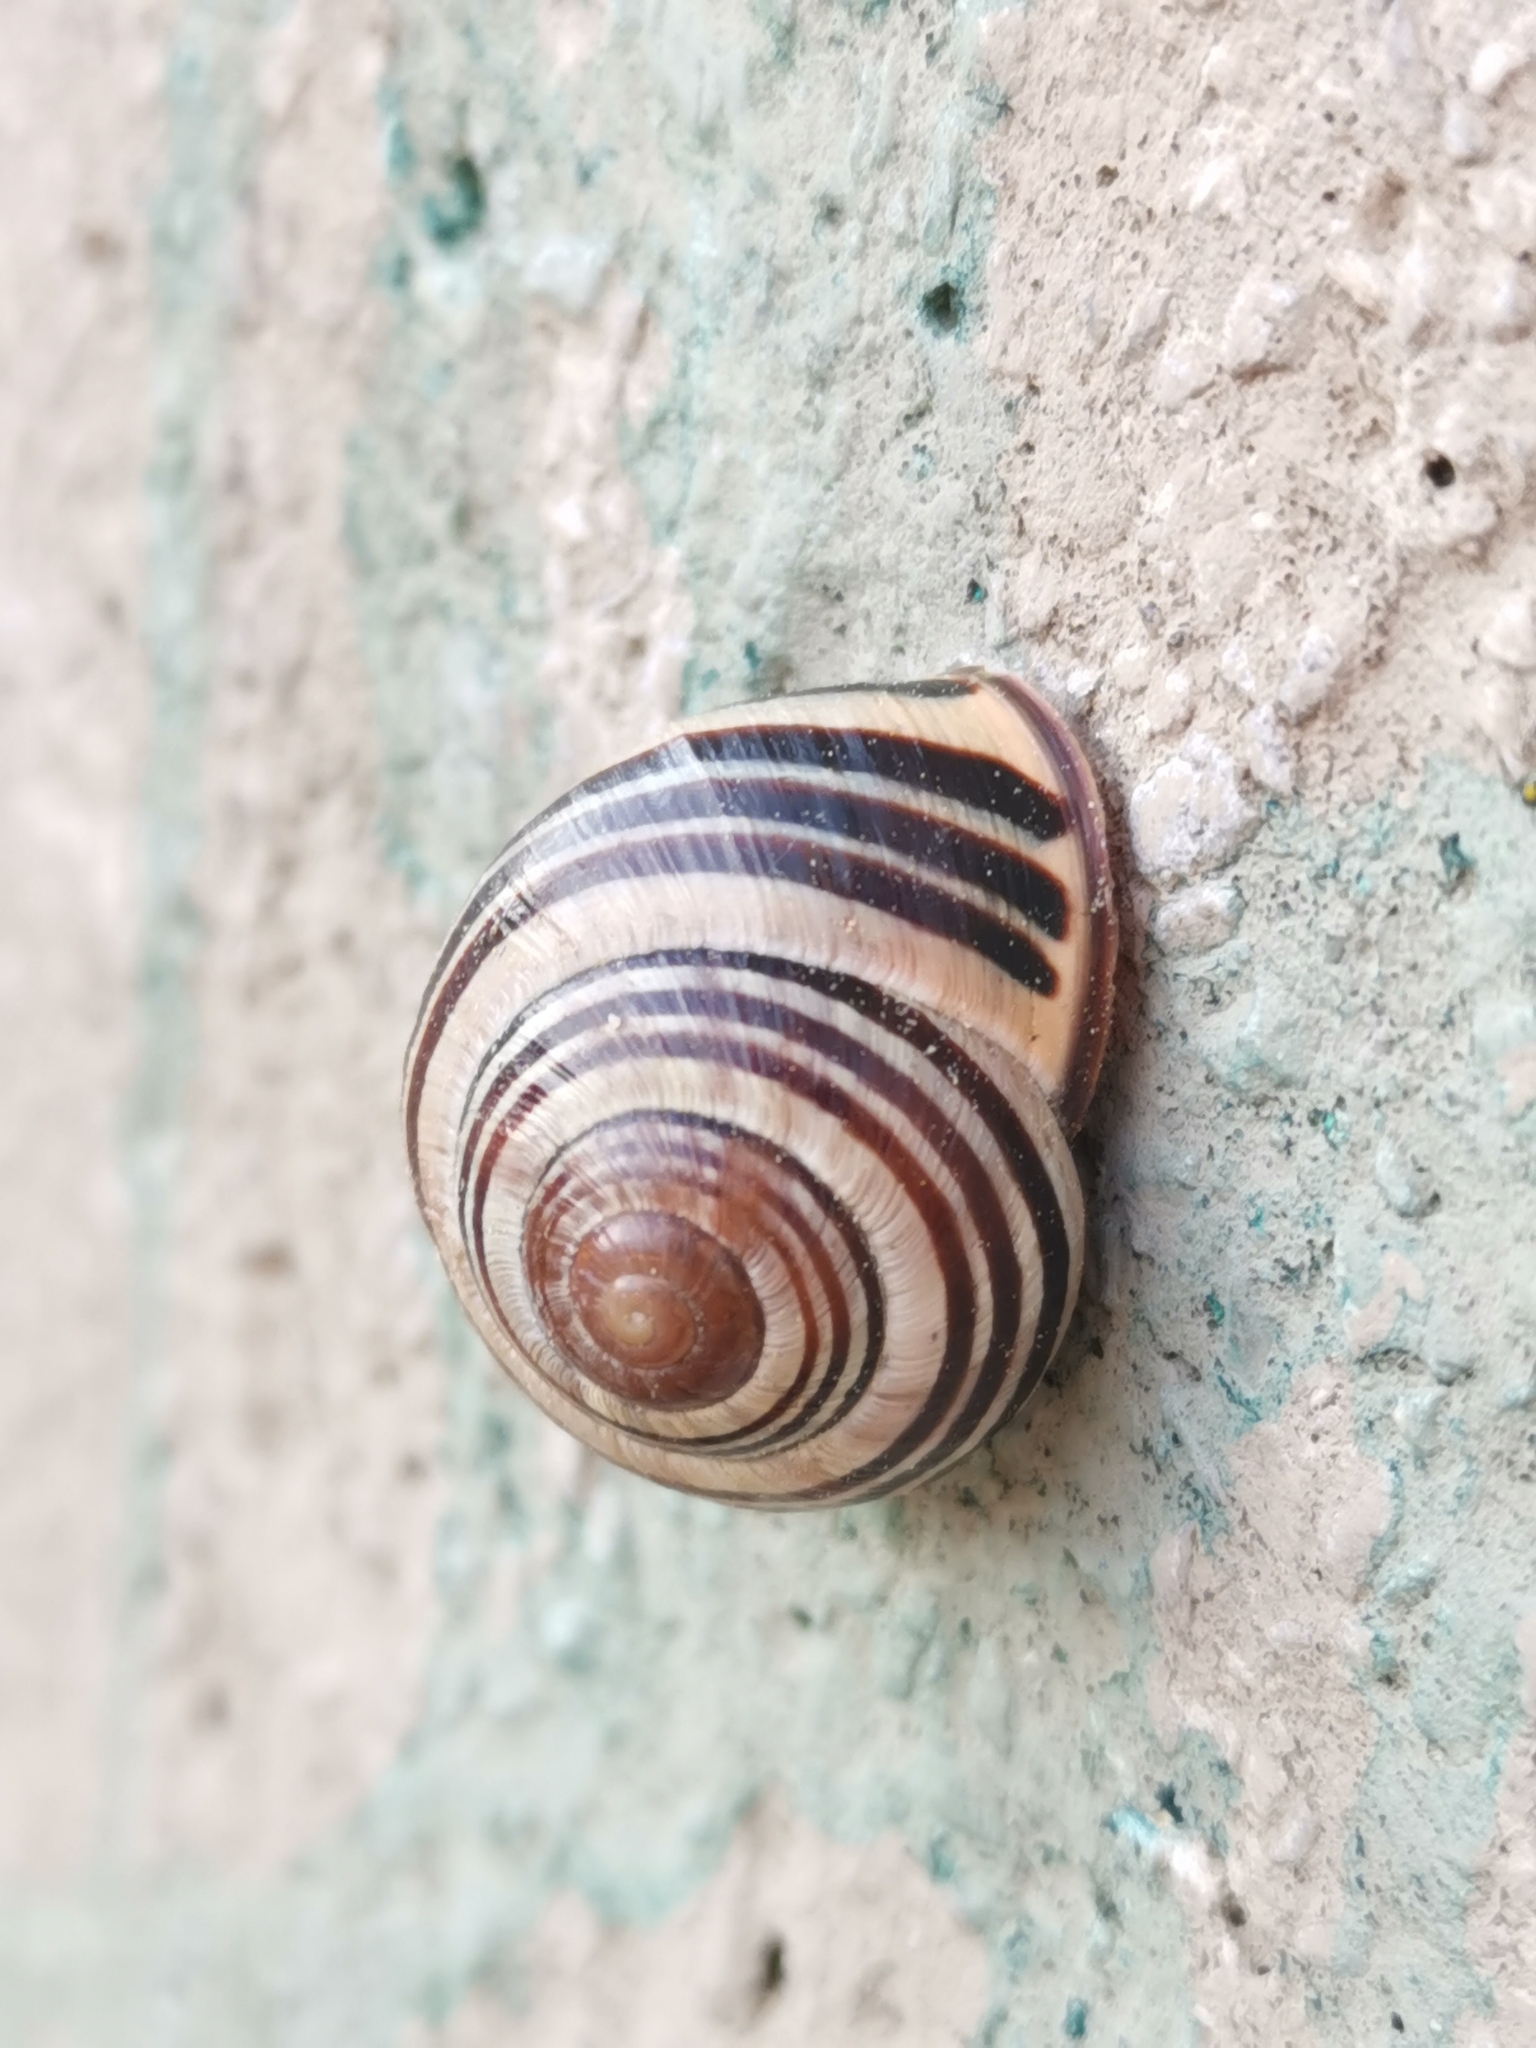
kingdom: Animalia
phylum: Mollusca
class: Gastropoda
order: Stylommatophora
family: Helicidae
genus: Cepaea
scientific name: Cepaea nemoralis
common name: Grovesnail
